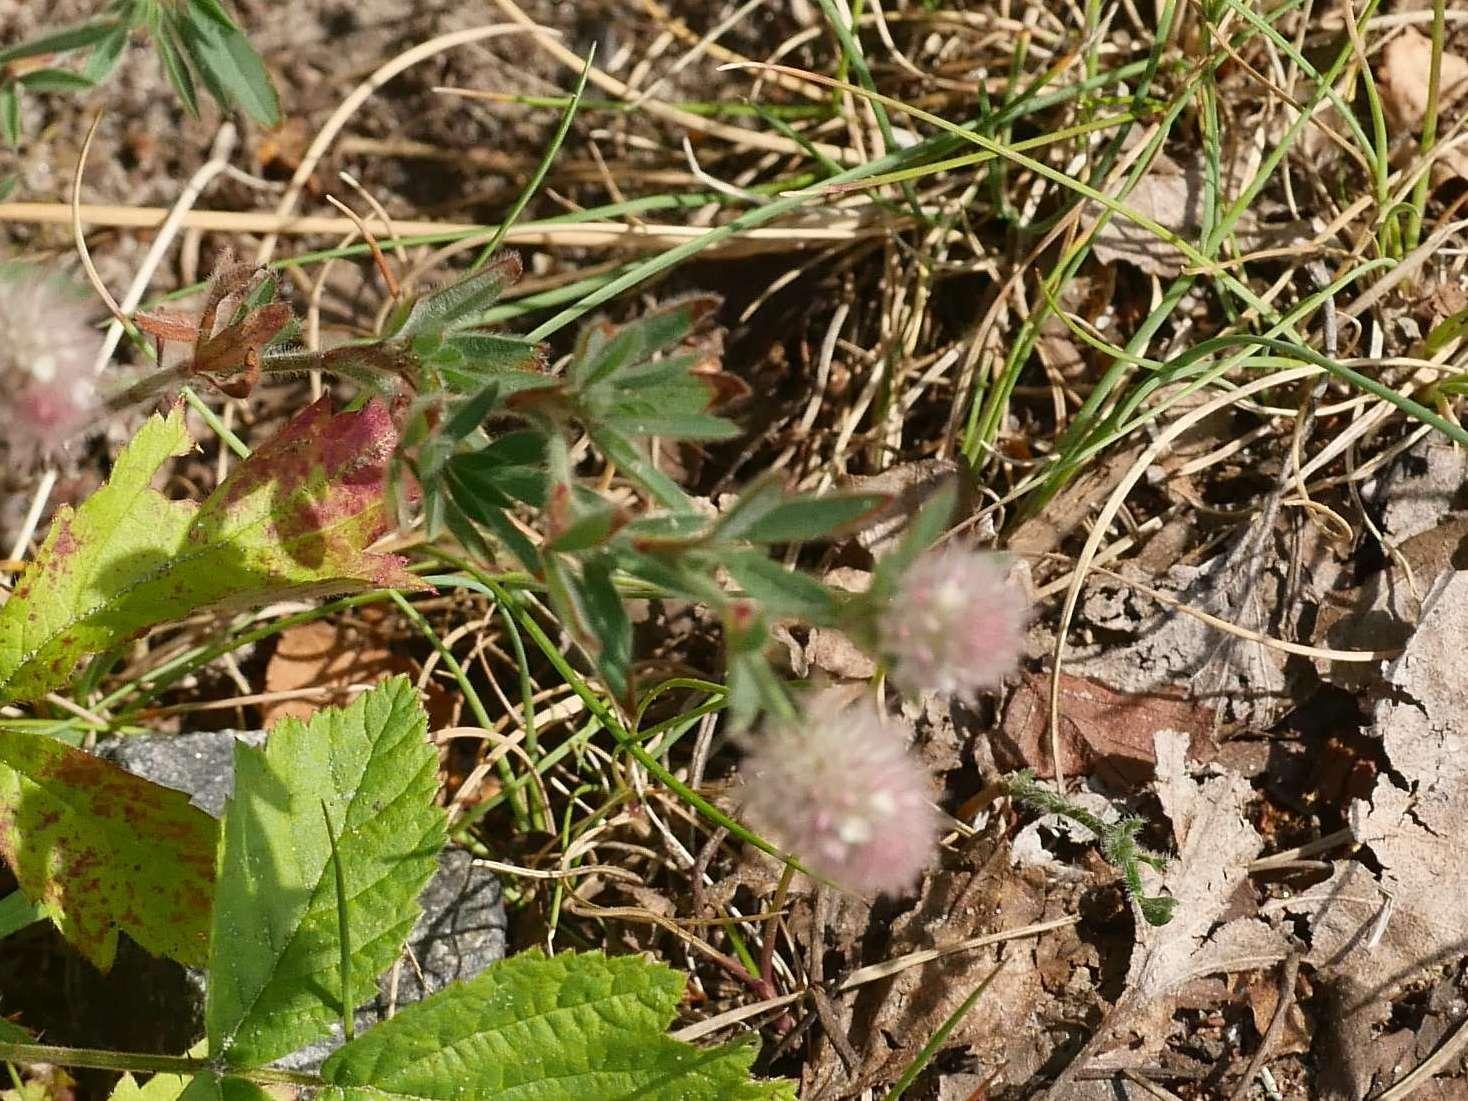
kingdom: Plantae
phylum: Tracheophyta
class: Magnoliopsida
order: Fabales
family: Fabaceae
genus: Trifolium
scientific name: Trifolium arvense
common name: Hare's-foot clover
